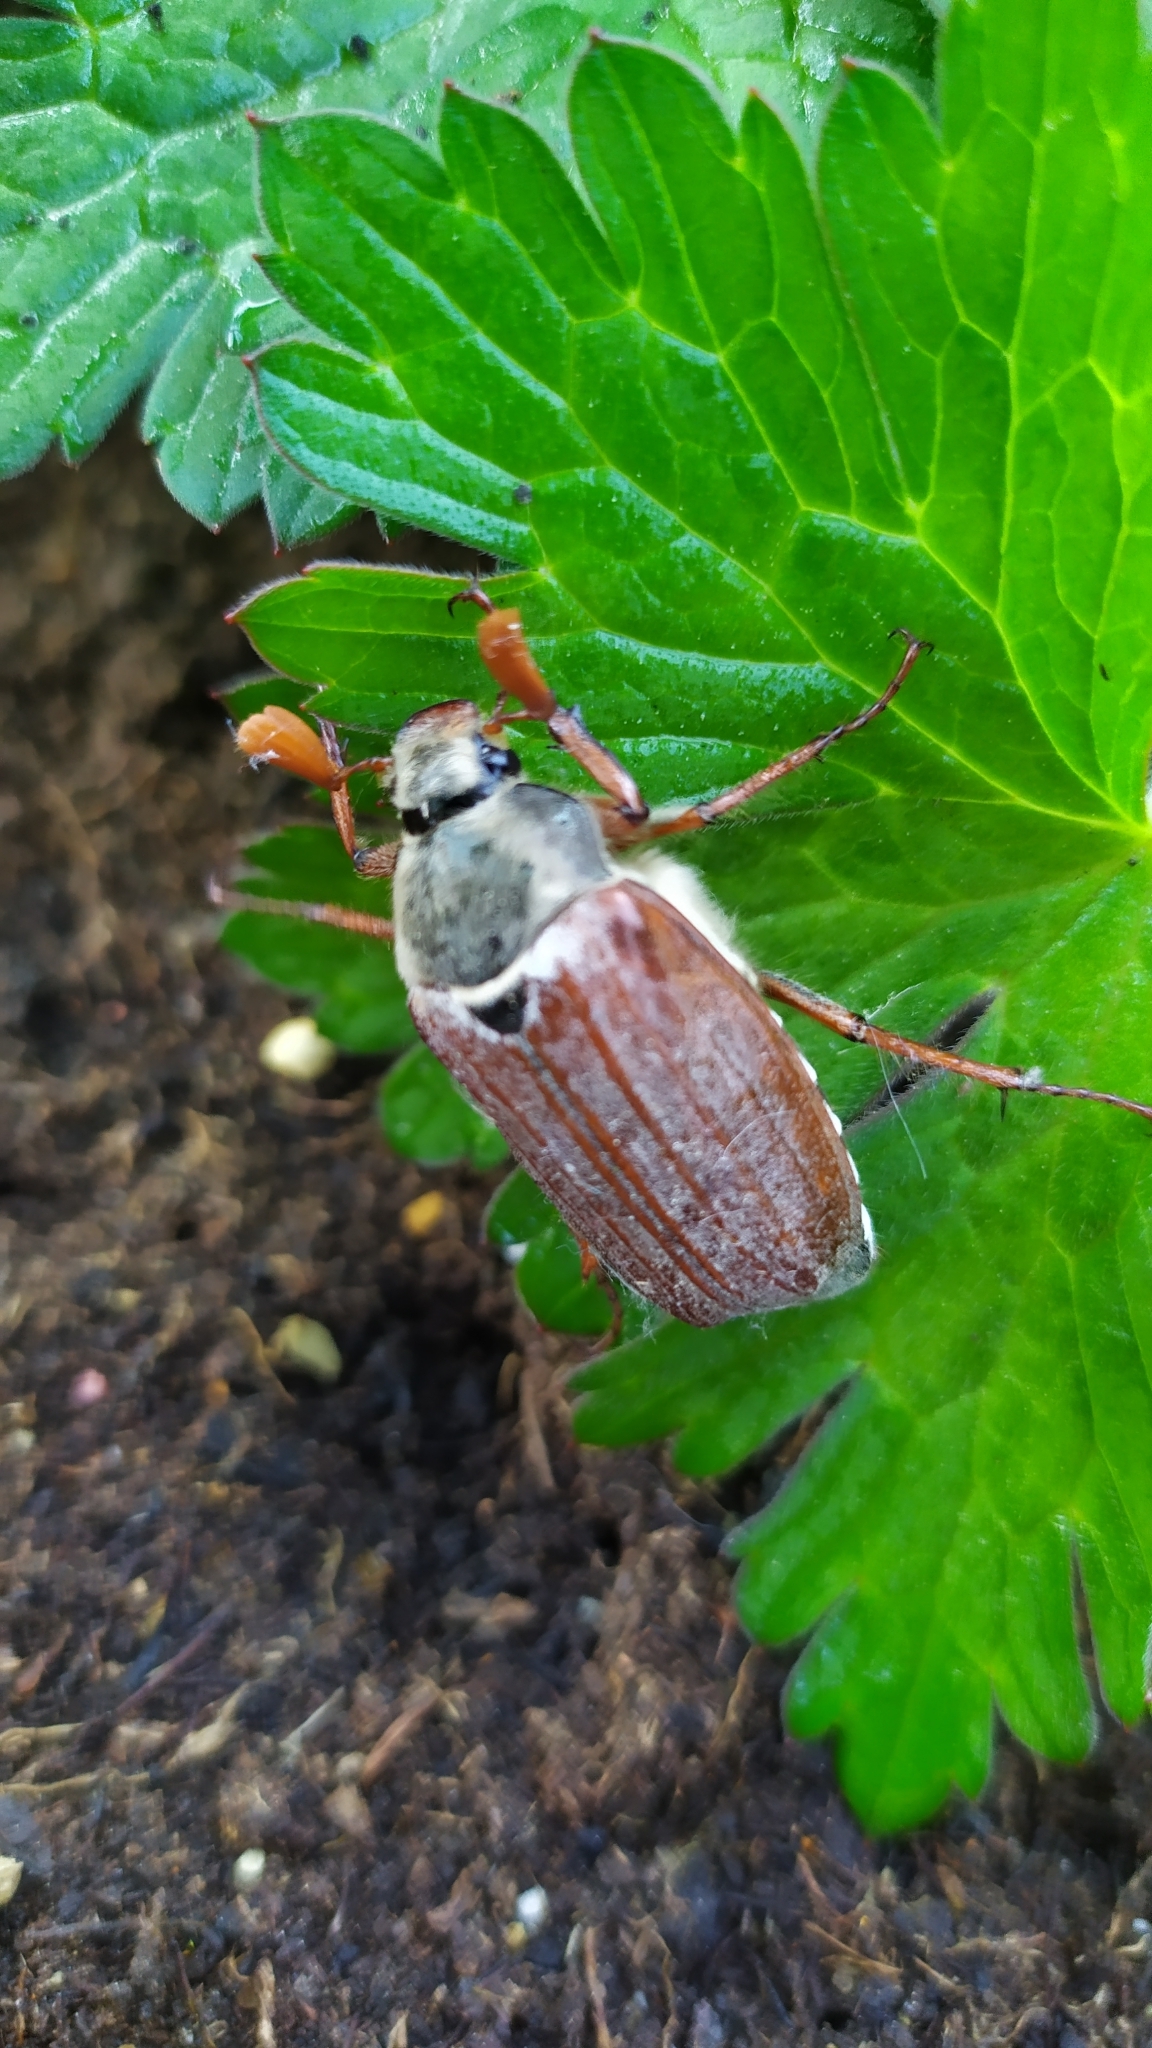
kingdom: Animalia
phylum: Arthropoda
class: Insecta
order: Coleoptera
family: Scarabaeidae
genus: Melolontha
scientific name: Melolontha melolontha
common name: Cockchafer maybeetle
